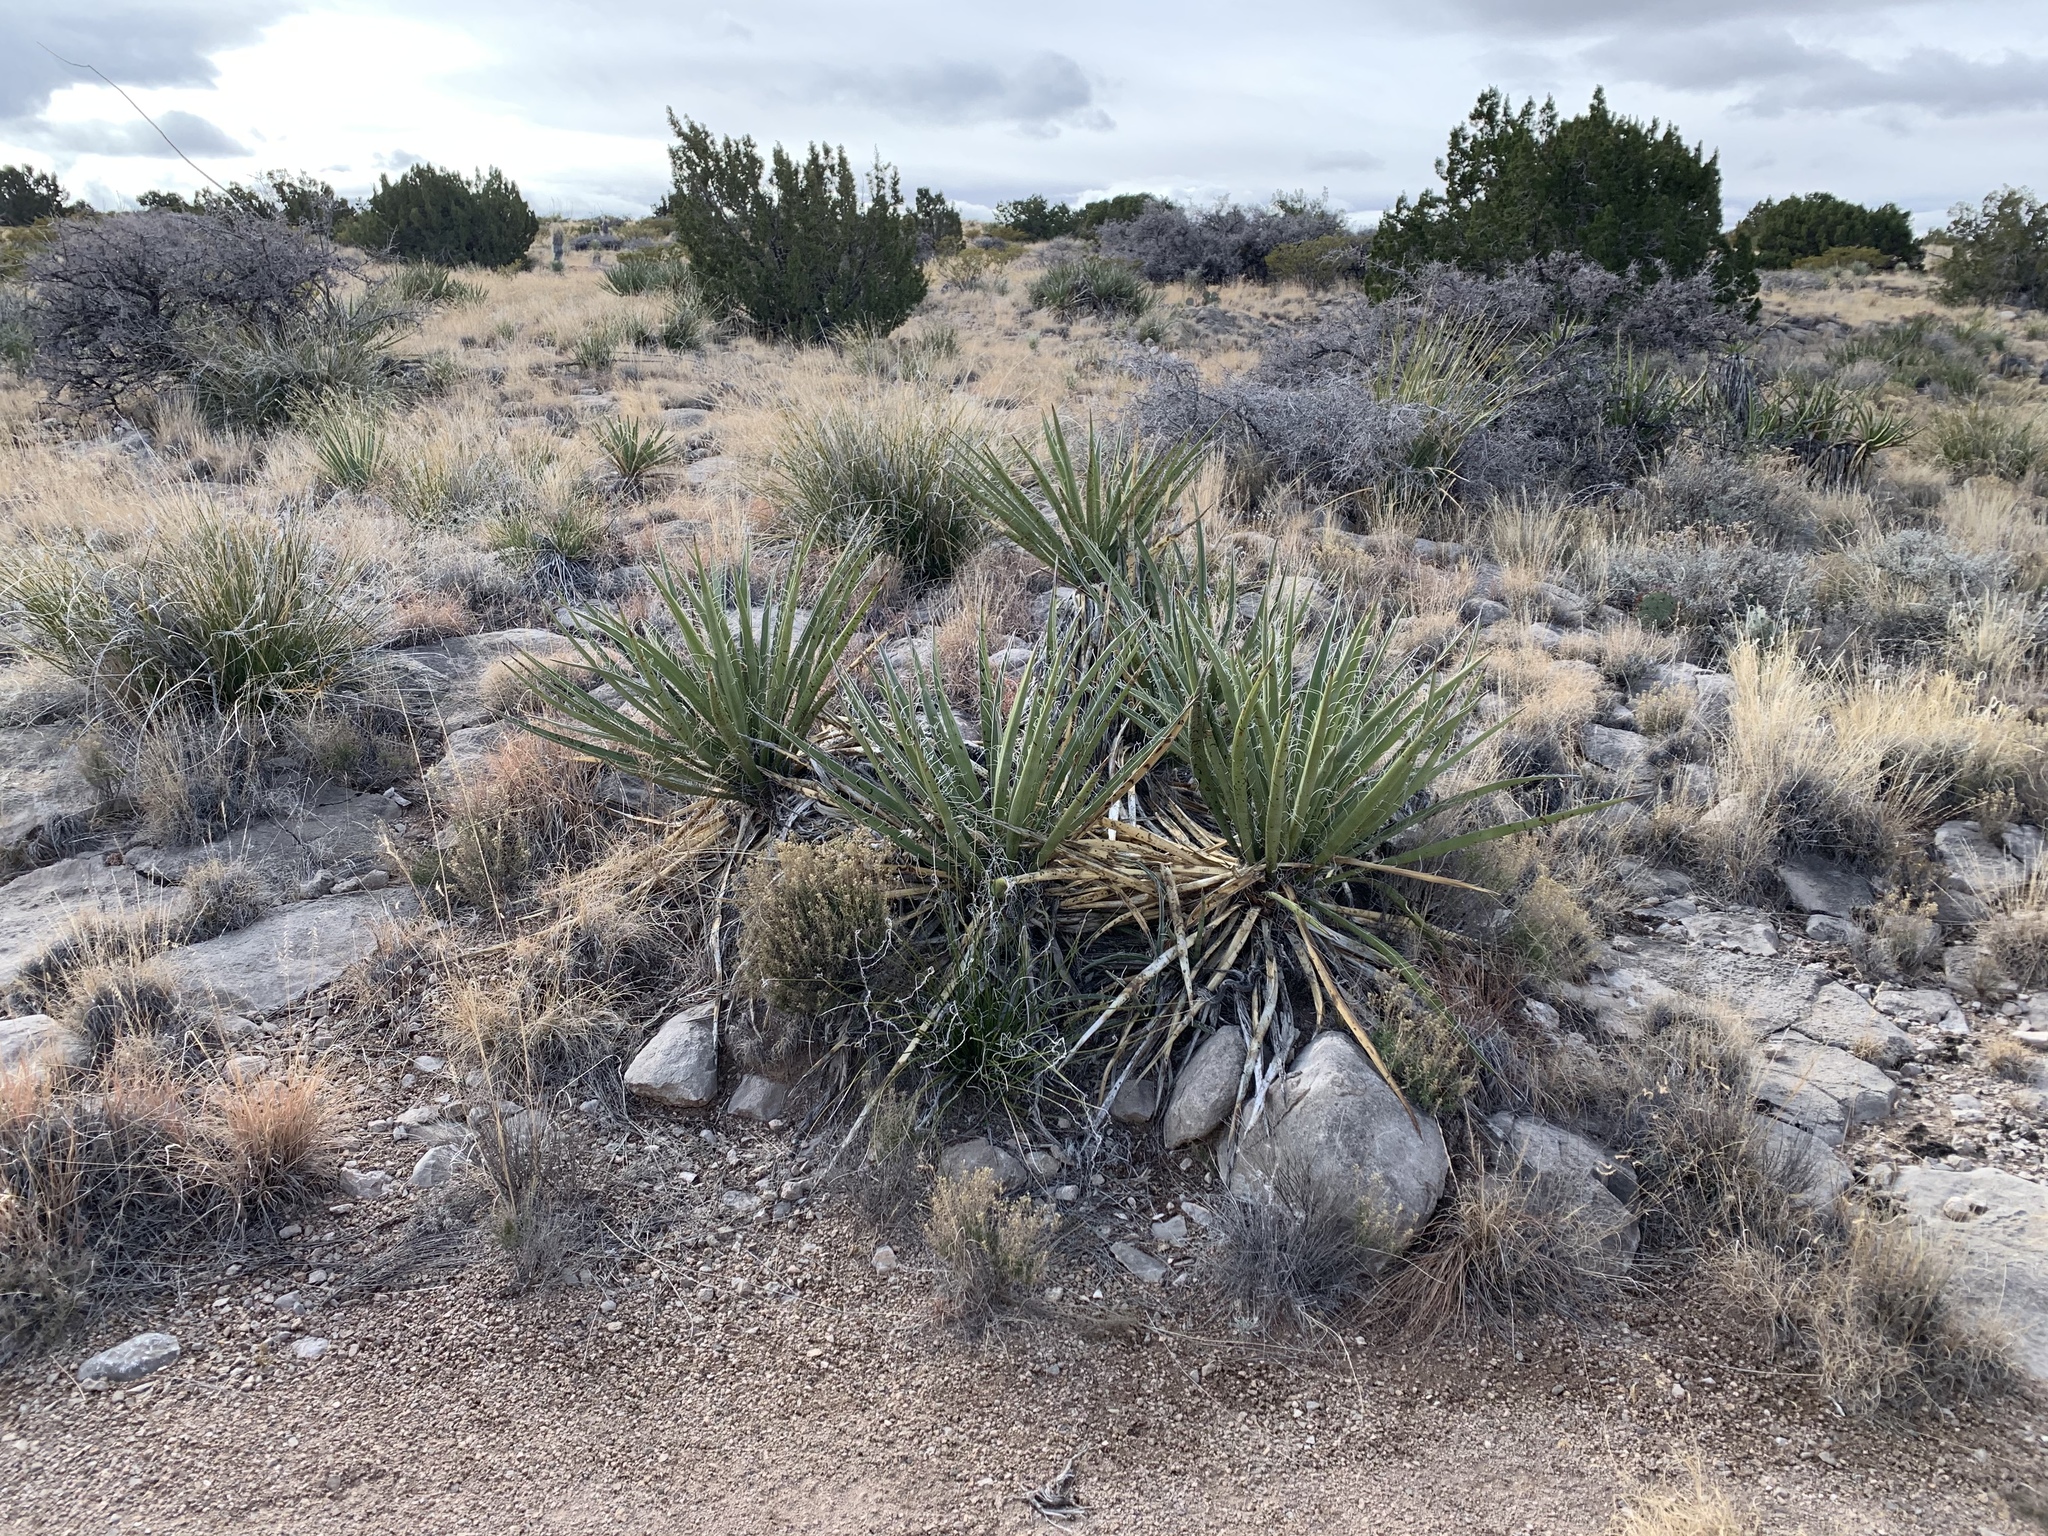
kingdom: Plantae
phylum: Tracheophyta
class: Liliopsida
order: Asparagales
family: Asparagaceae
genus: Yucca
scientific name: Yucca baccata
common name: Banana yucca
